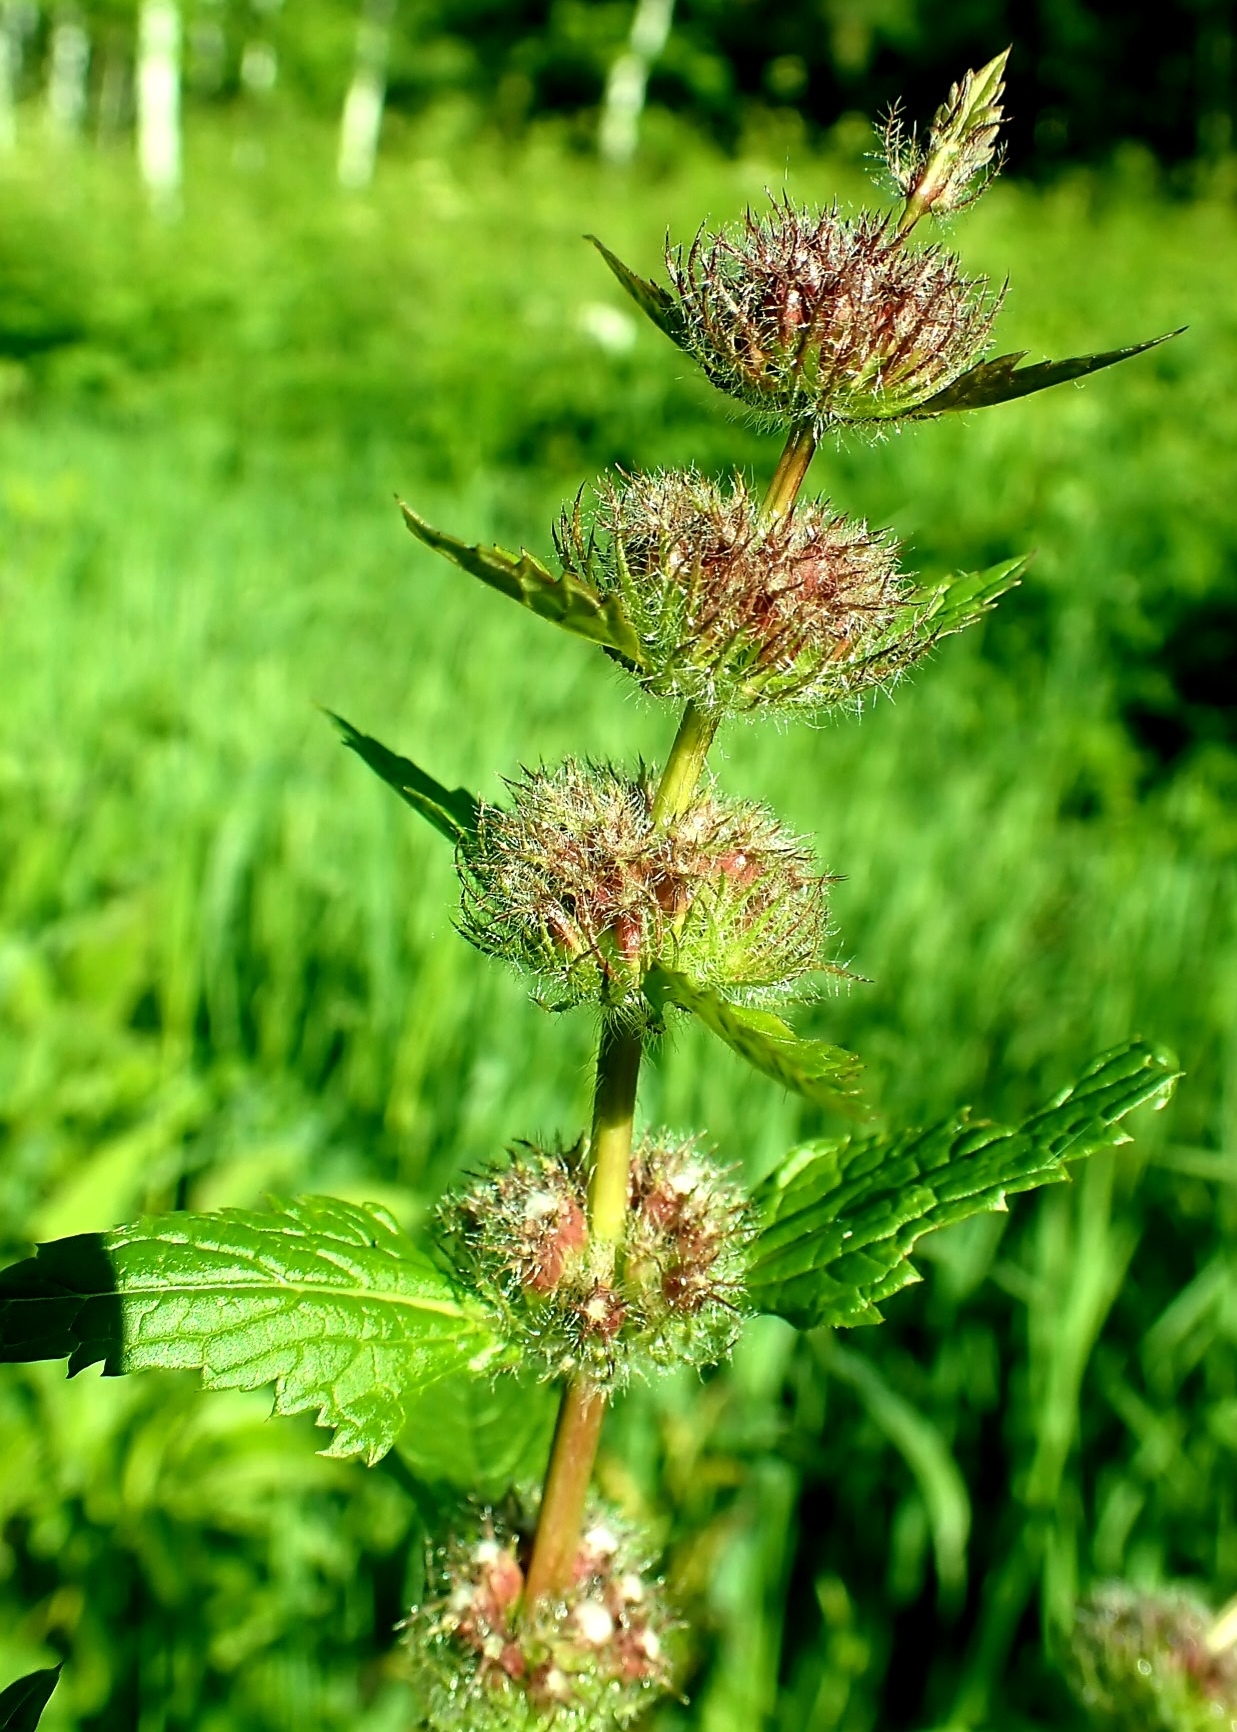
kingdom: Plantae
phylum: Tracheophyta
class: Magnoliopsida
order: Lamiales
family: Lamiaceae
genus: Phlomoides
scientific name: Phlomoides tuberosa
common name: Tuberous jerusalem sage
